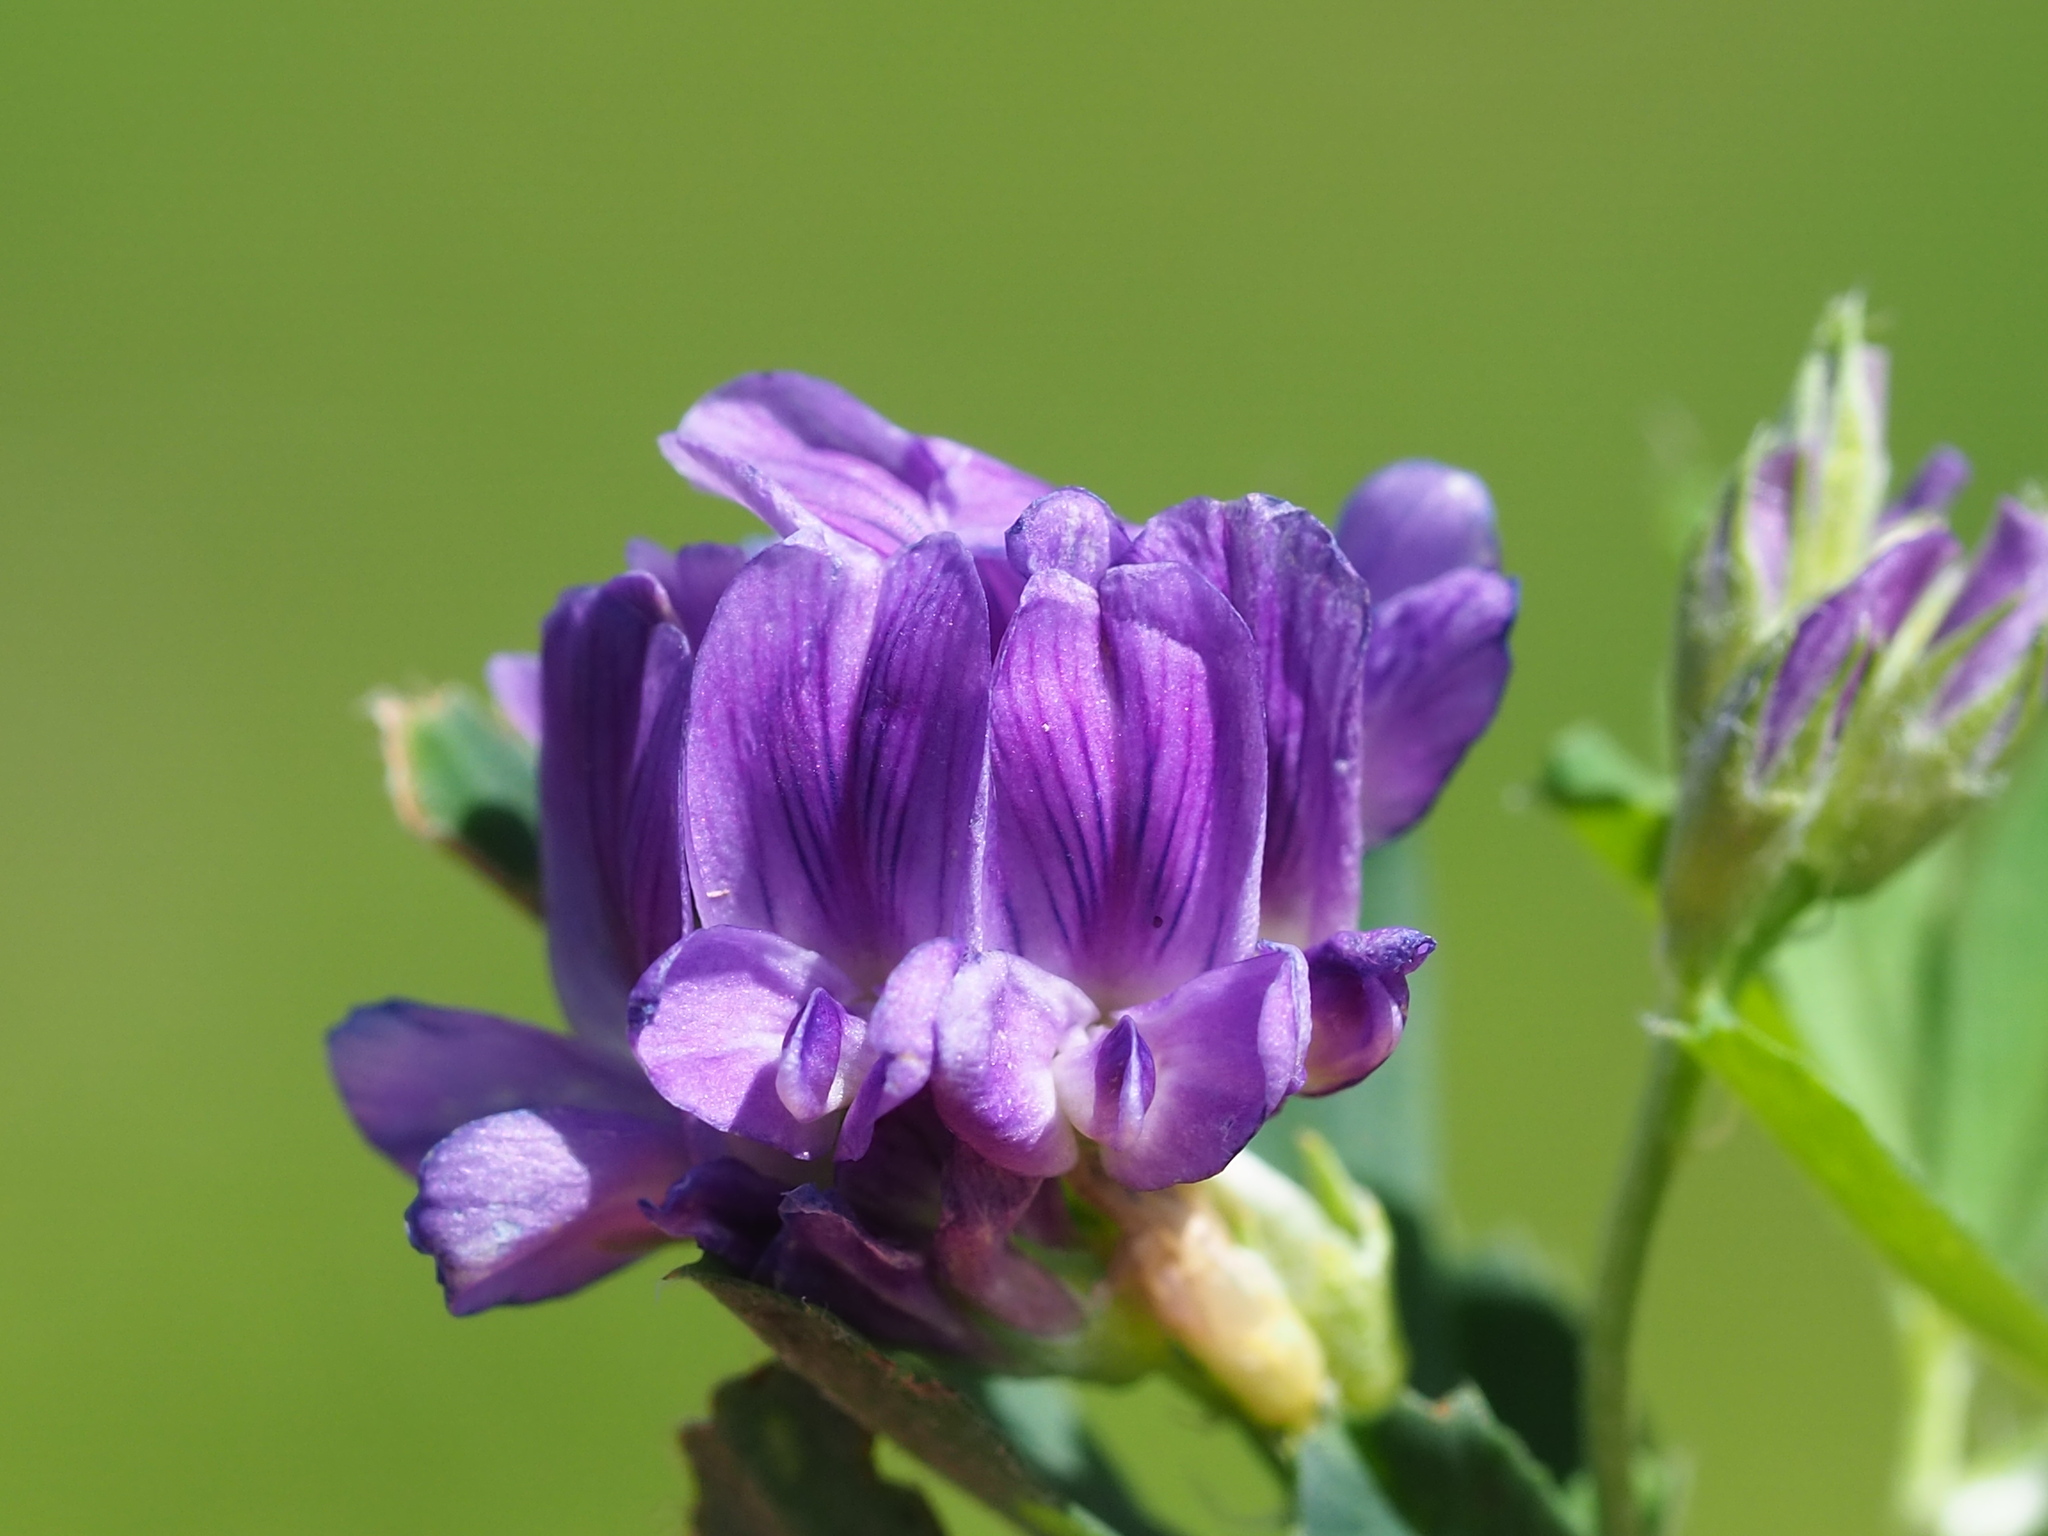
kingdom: Plantae
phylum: Tracheophyta
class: Magnoliopsida
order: Fabales
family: Fabaceae
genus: Medicago
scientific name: Medicago sativa
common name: Alfalfa
